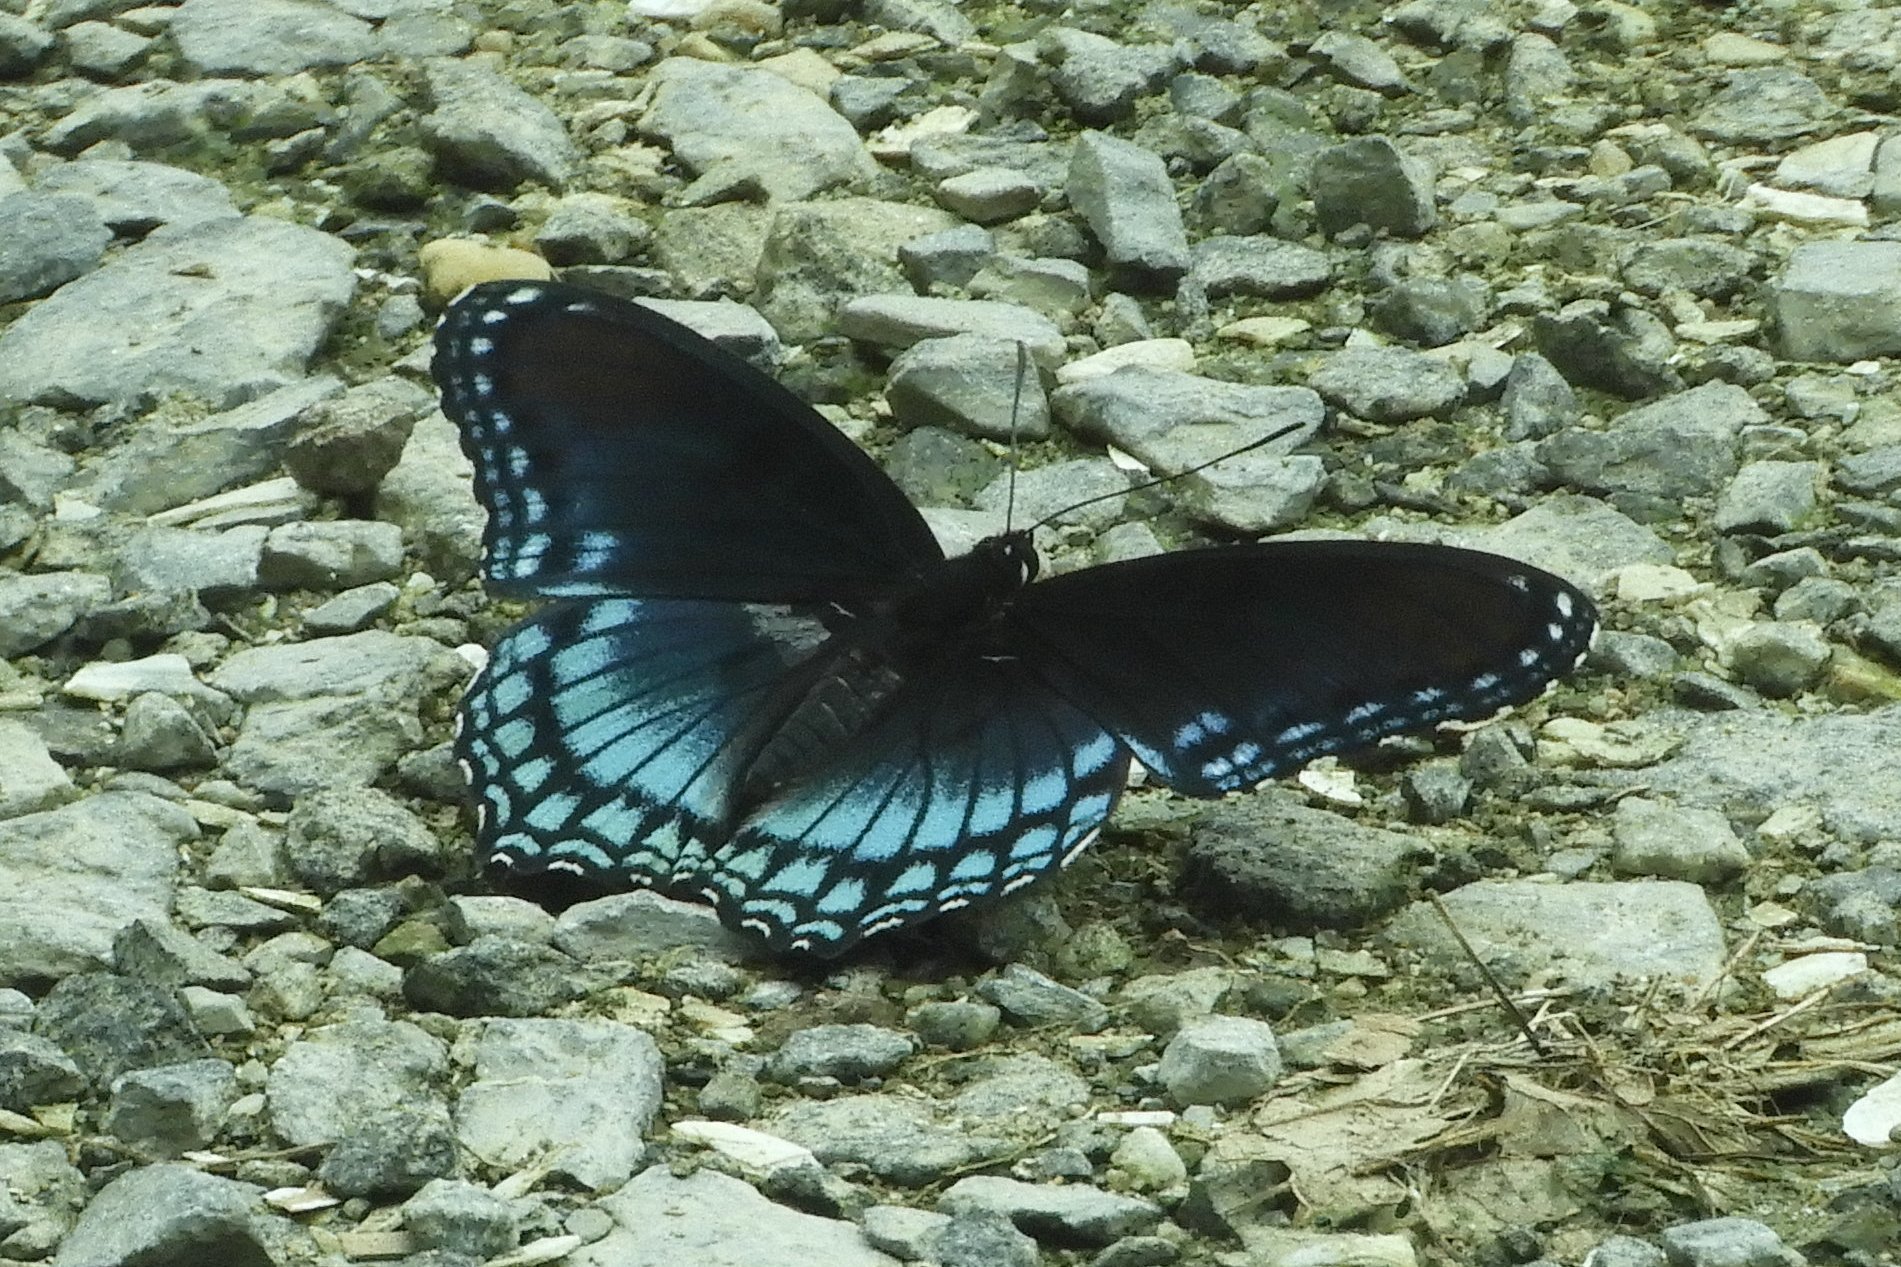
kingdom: Animalia
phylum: Arthropoda
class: Insecta
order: Lepidoptera
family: Nymphalidae
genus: Limenitis
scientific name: Limenitis astyanax
